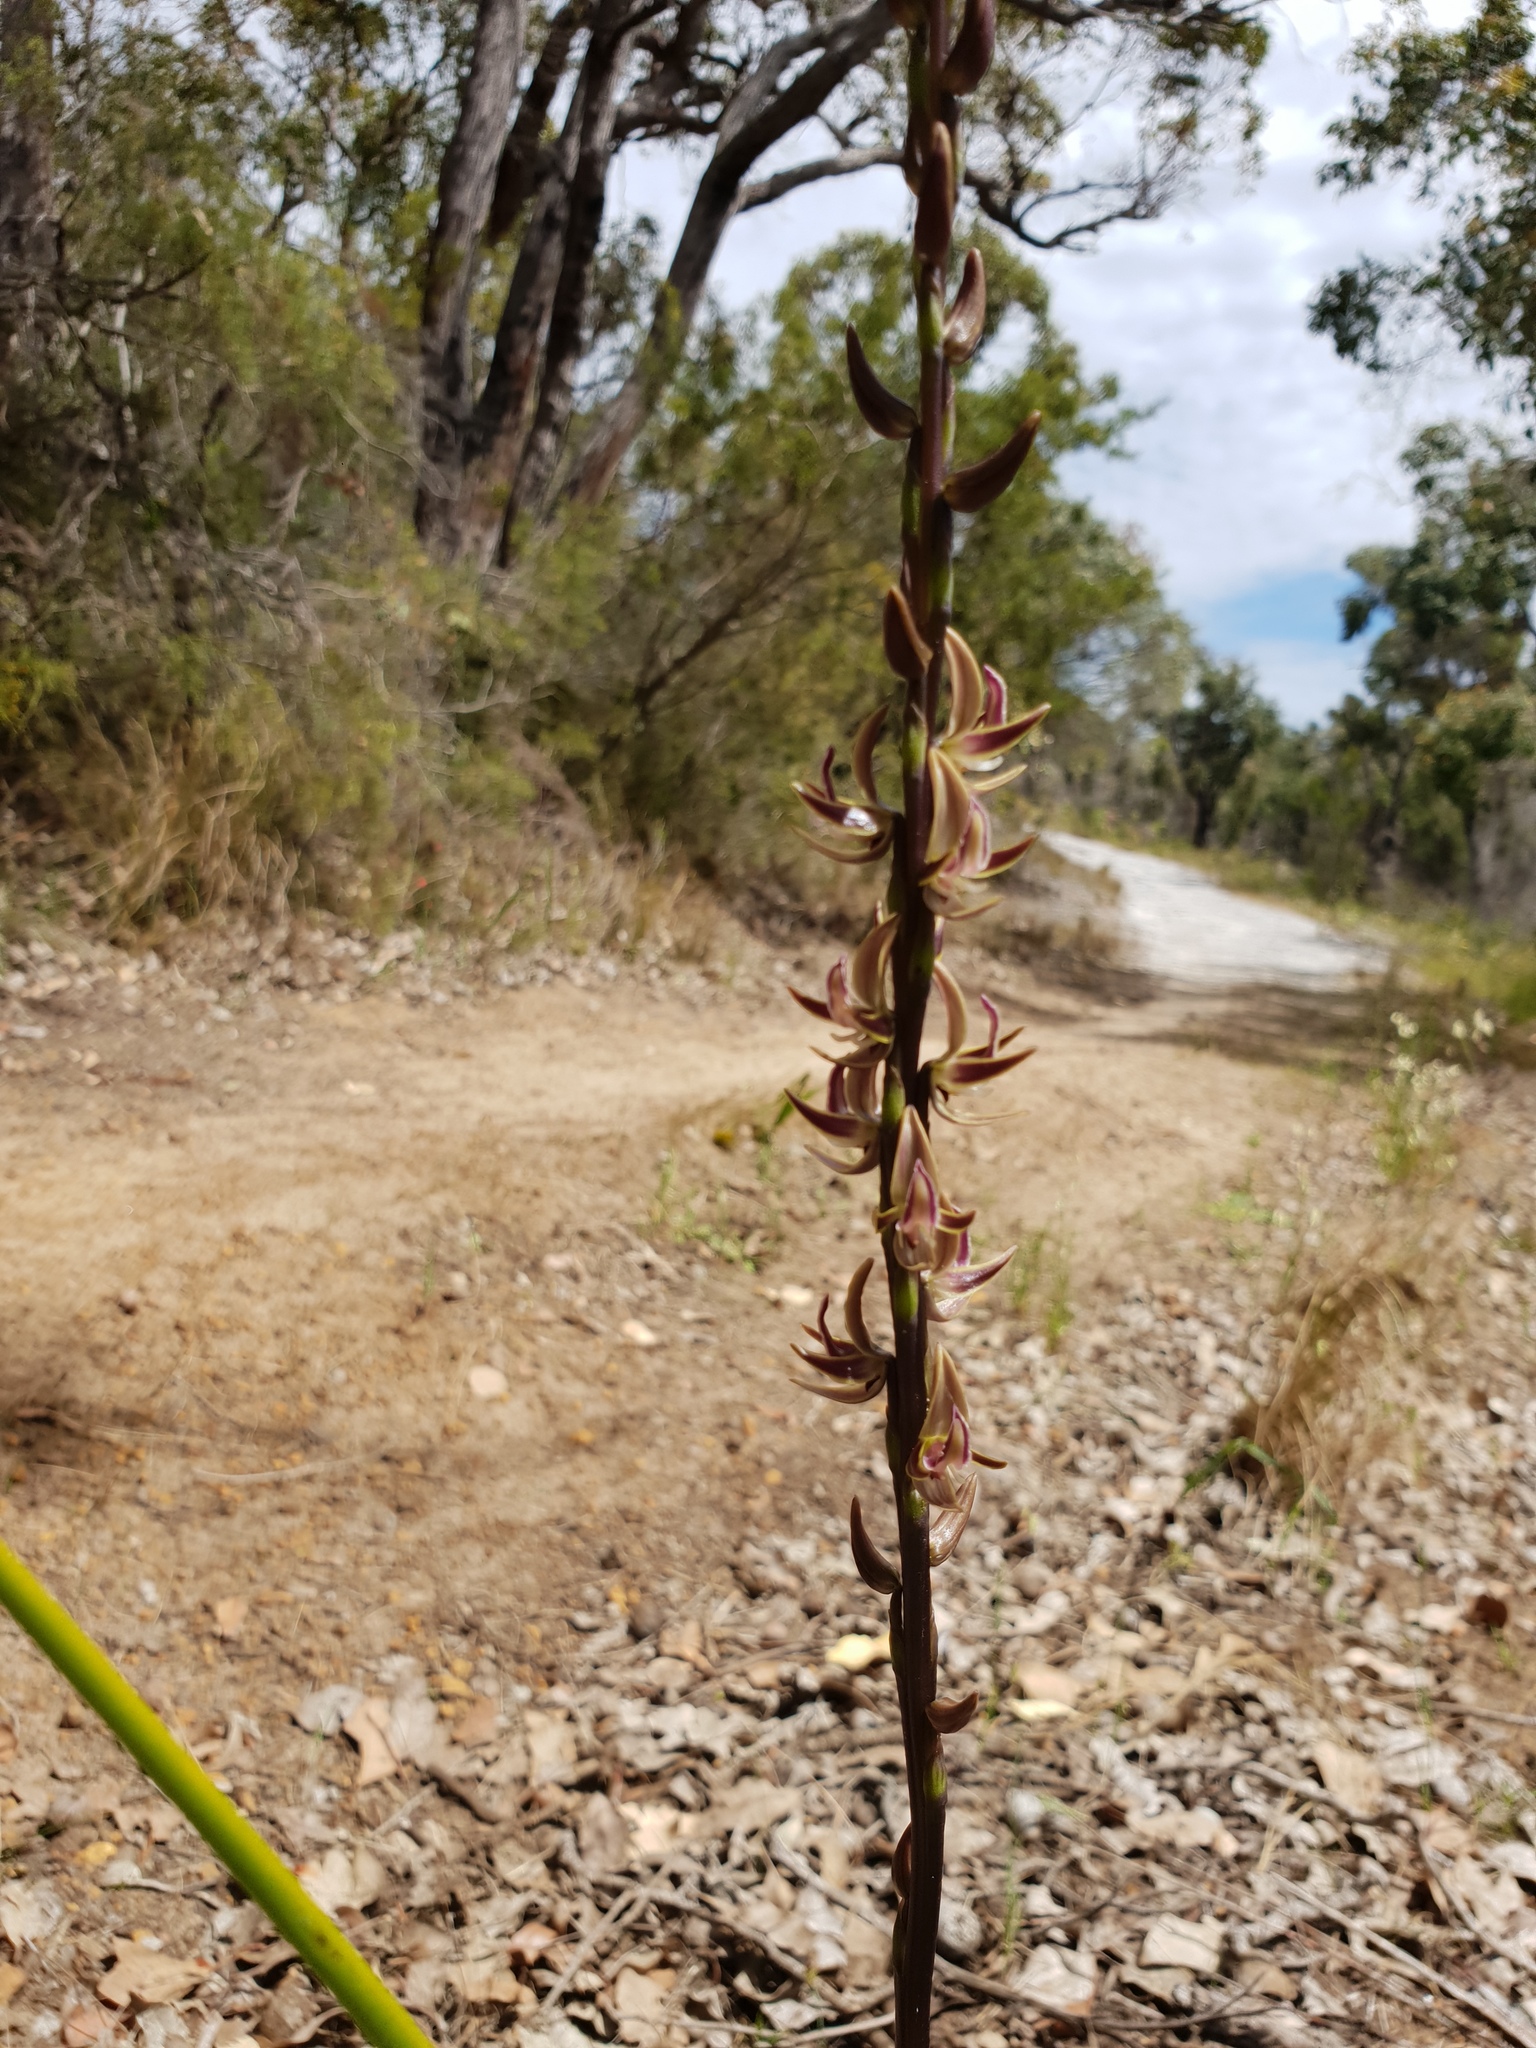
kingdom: Plantae
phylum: Tracheophyta
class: Liliopsida
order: Asparagales
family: Orchidaceae
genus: Prasophyllum
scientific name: Prasophyllum regium
